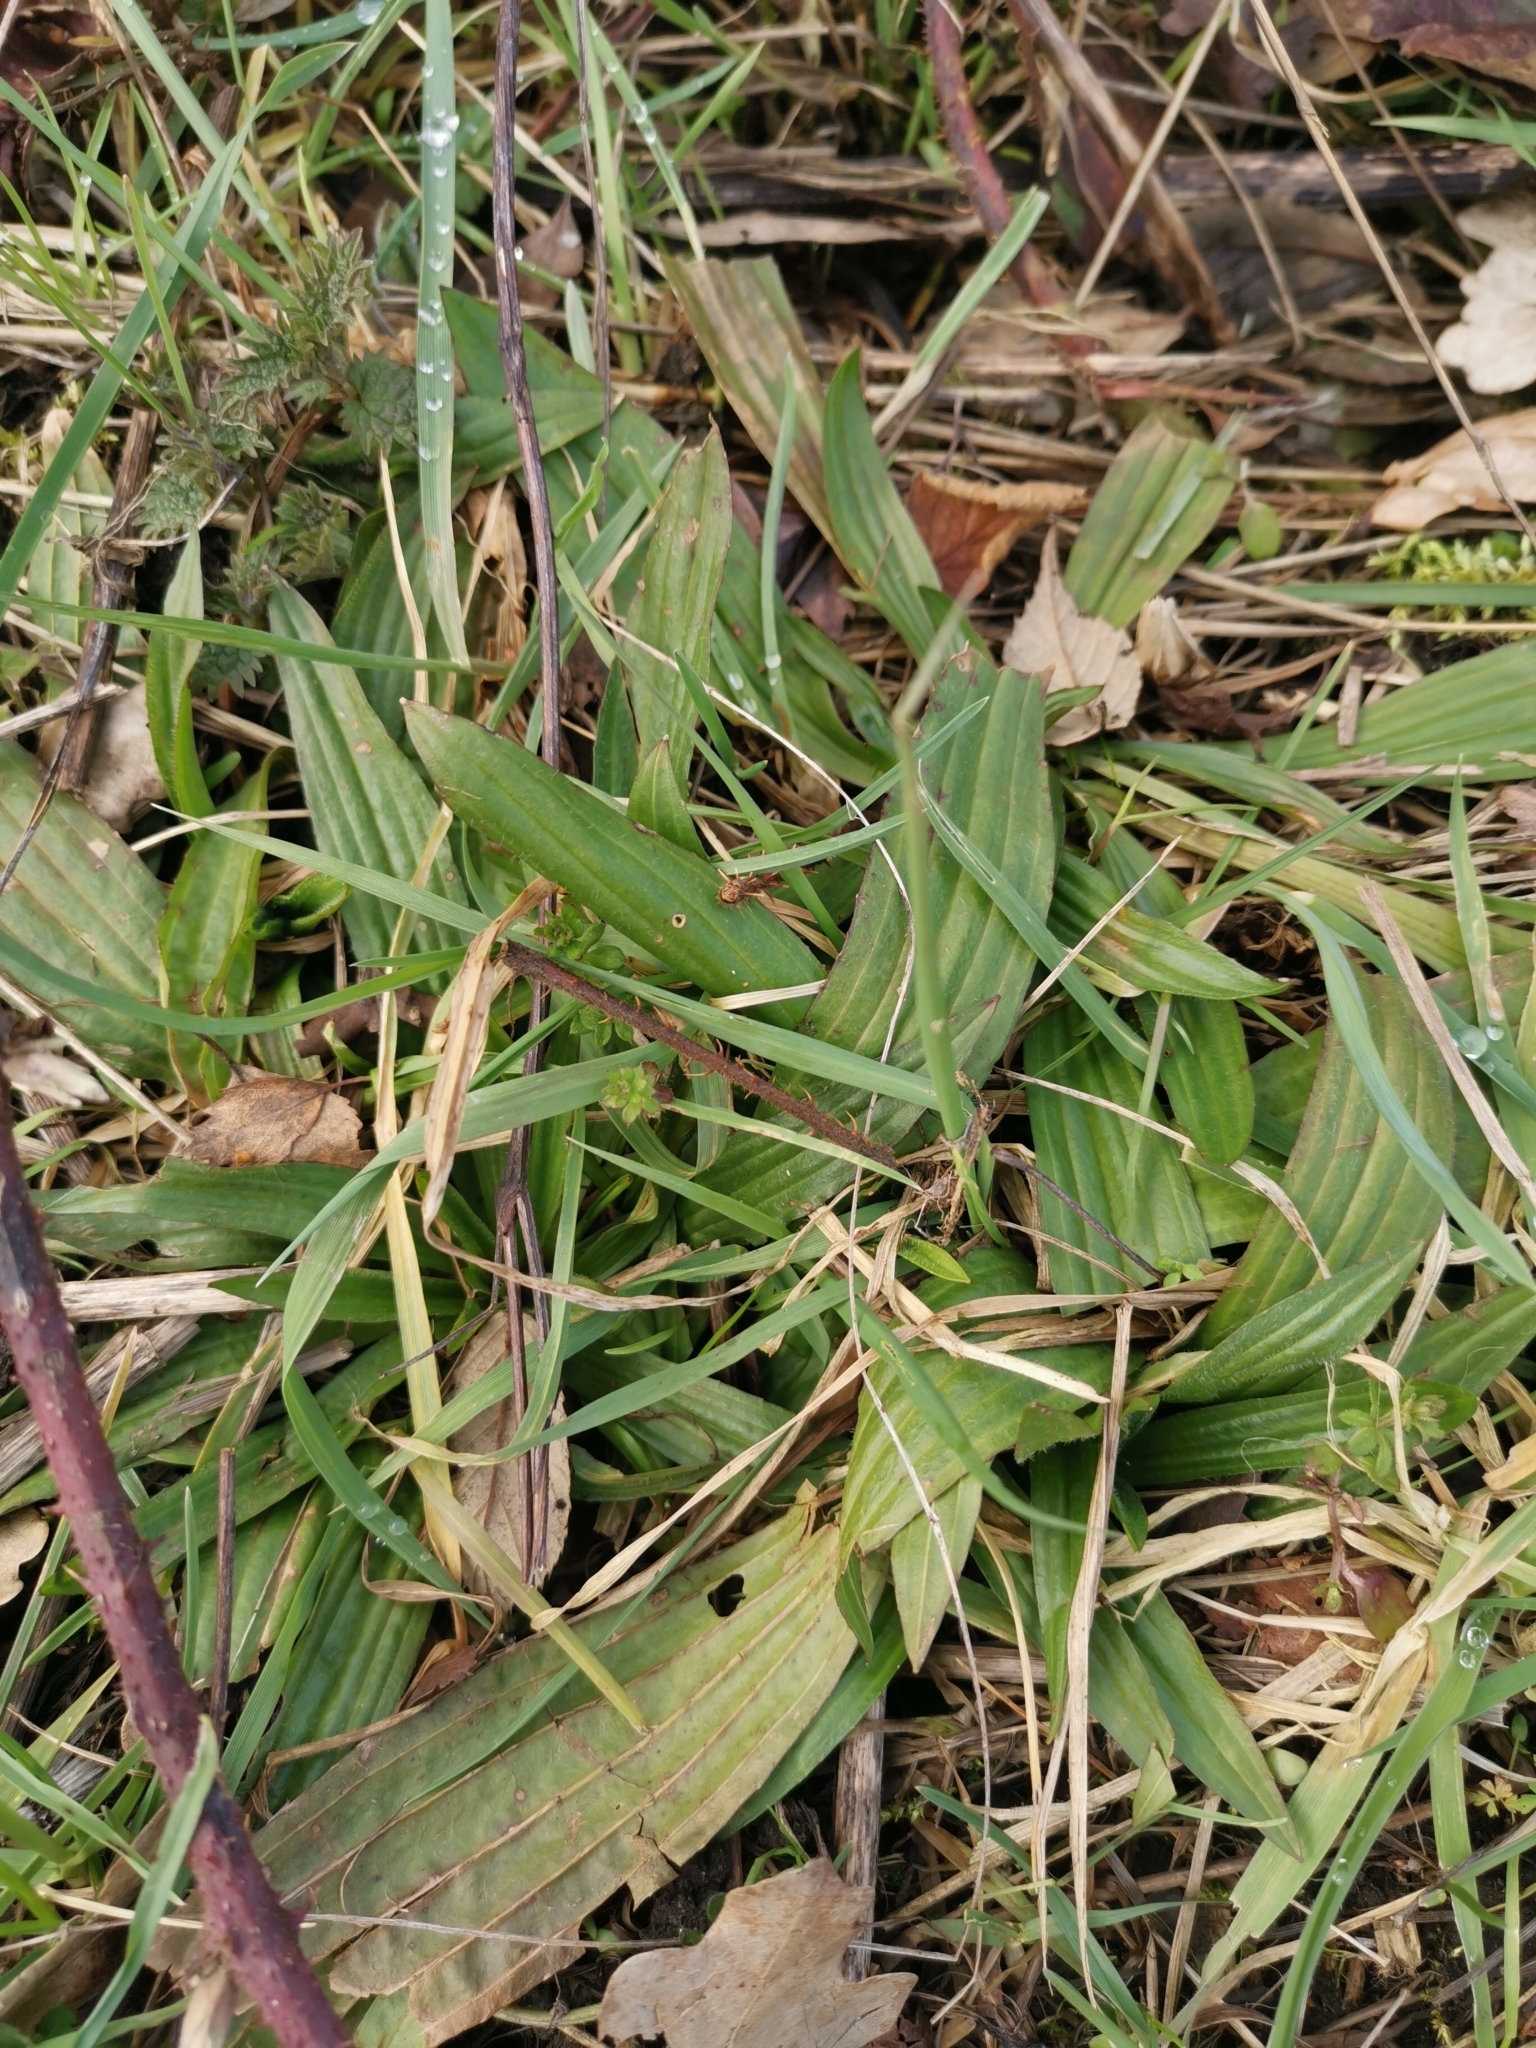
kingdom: Plantae
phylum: Tracheophyta
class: Magnoliopsida
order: Lamiales
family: Plantaginaceae
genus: Plantago
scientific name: Plantago lanceolata
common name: Ribwort plantain
